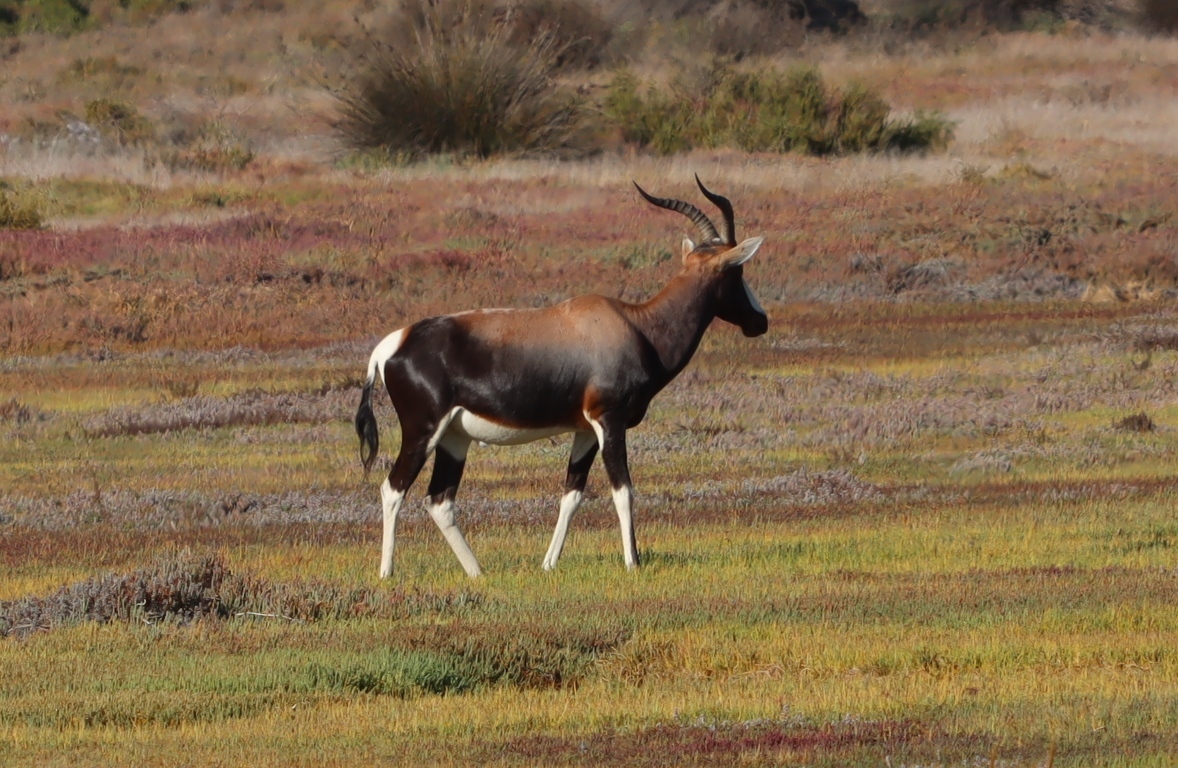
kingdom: Animalia
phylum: Chordata
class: Mammalia
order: Artiodactyla
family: Bovidae
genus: Damaliscus
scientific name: Damaliscus pygargus
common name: Bontebok
